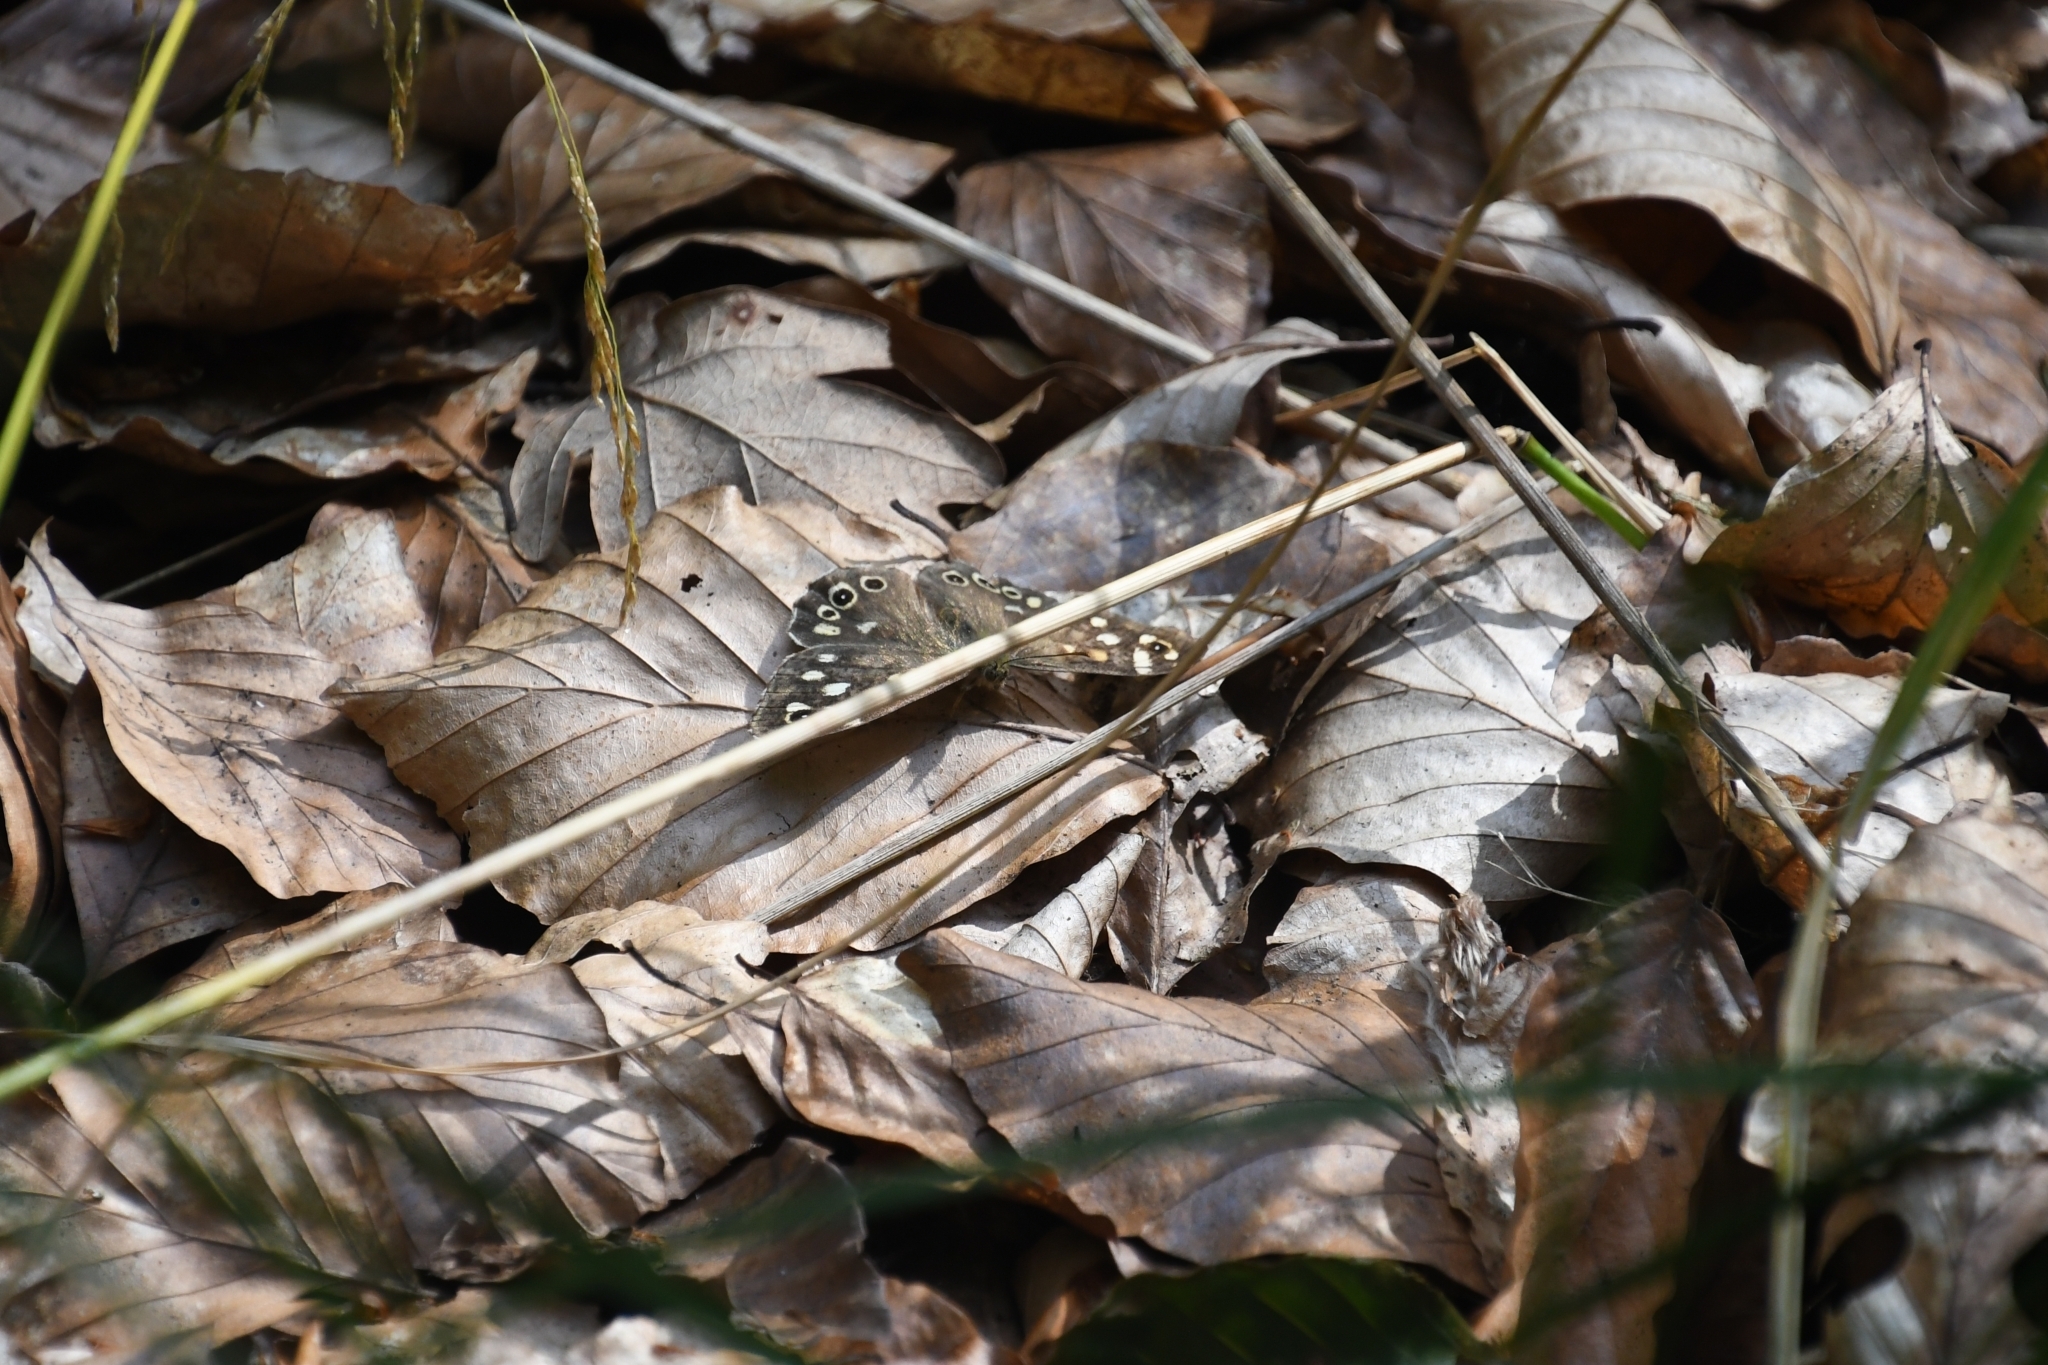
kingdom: Animalia
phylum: Arthropoda
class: Insecta
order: Lepidoptera
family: Nymphalidae
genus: Pararge
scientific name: Pararge aegeria
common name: Speckled wood
